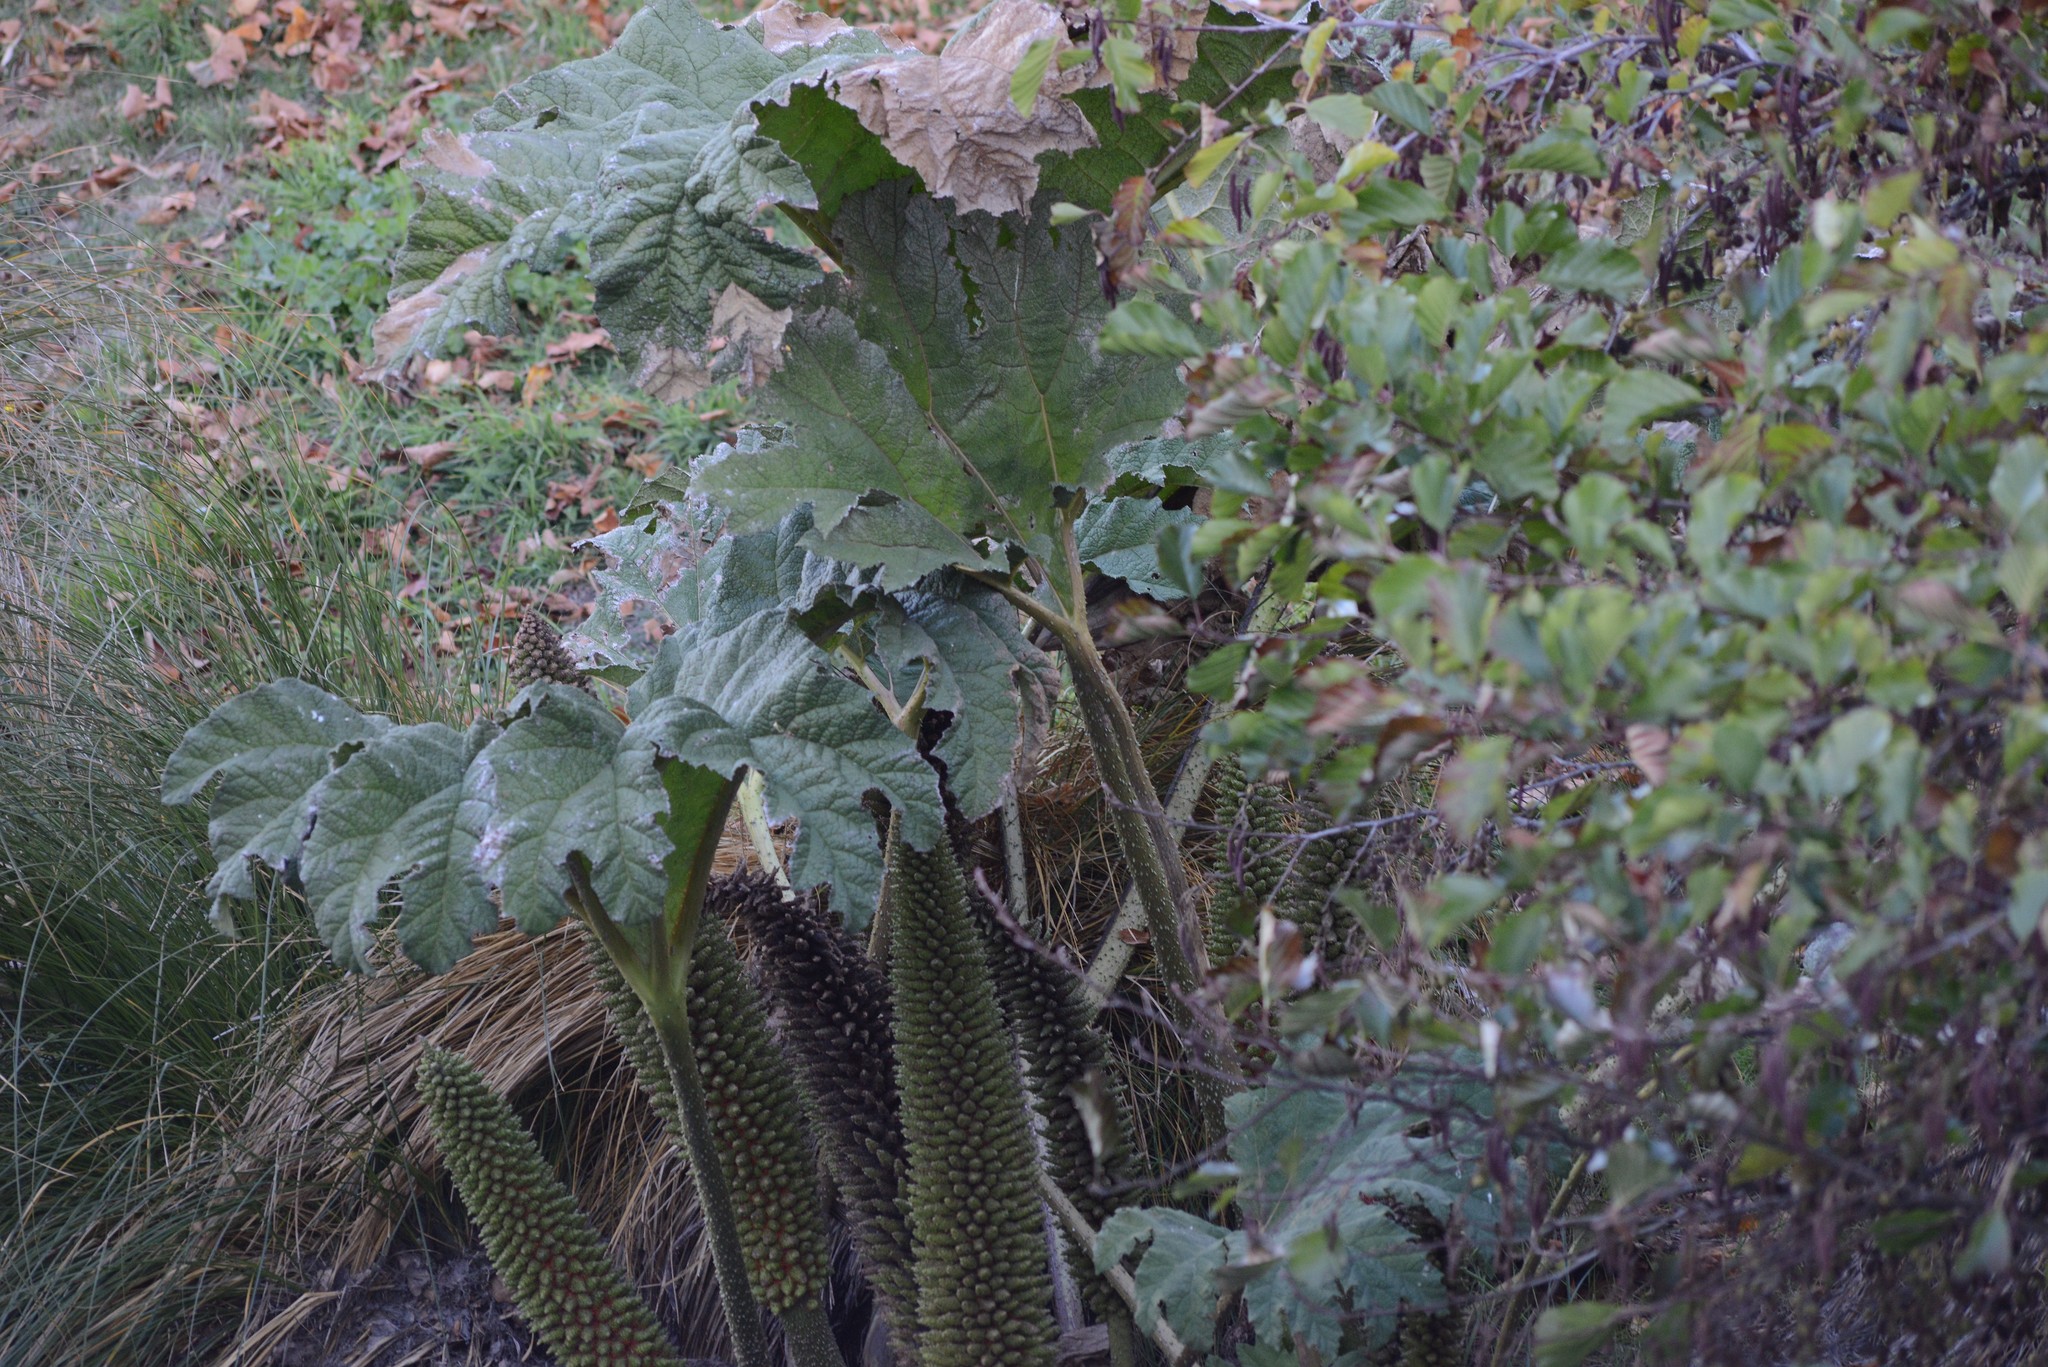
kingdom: Plantae
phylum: Tracheophyta
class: Magnoliopsida
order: Gunnerales
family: Gunneraceae
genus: Gunnera
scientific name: Gunnera tinctoria
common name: Giant-rhubarb
